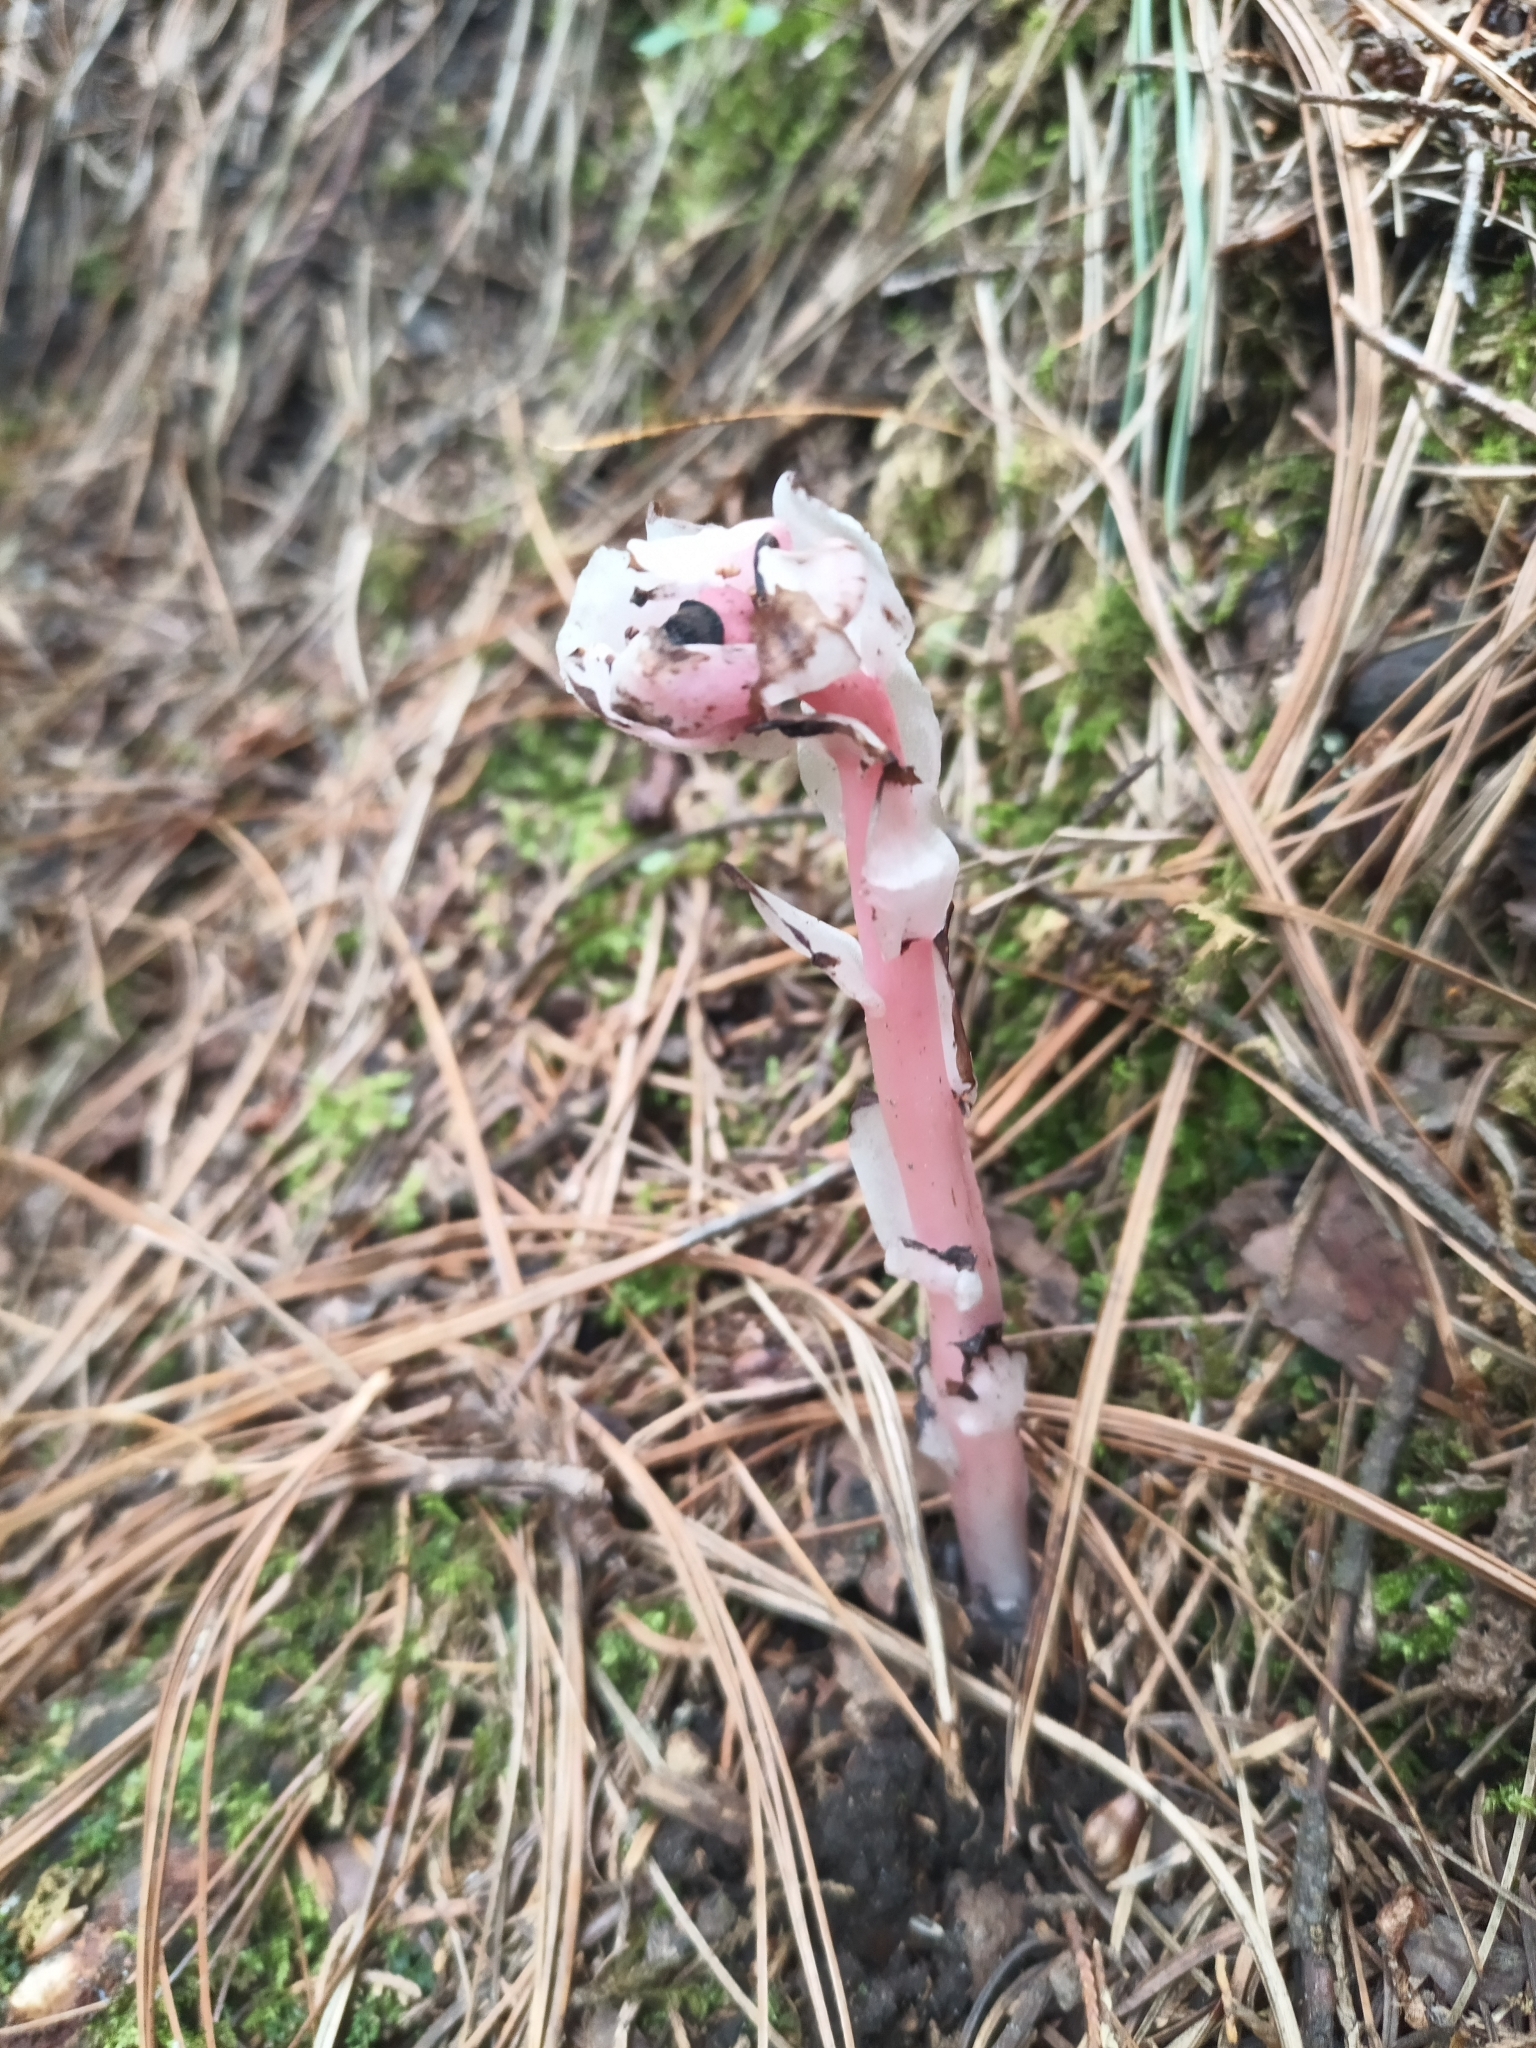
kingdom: Plantae
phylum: Tracheophyta
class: Magnoliopsida
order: Ericales
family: Ericaceae
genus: Monotropa
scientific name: Monotropa uniflora
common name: Convulsion root
